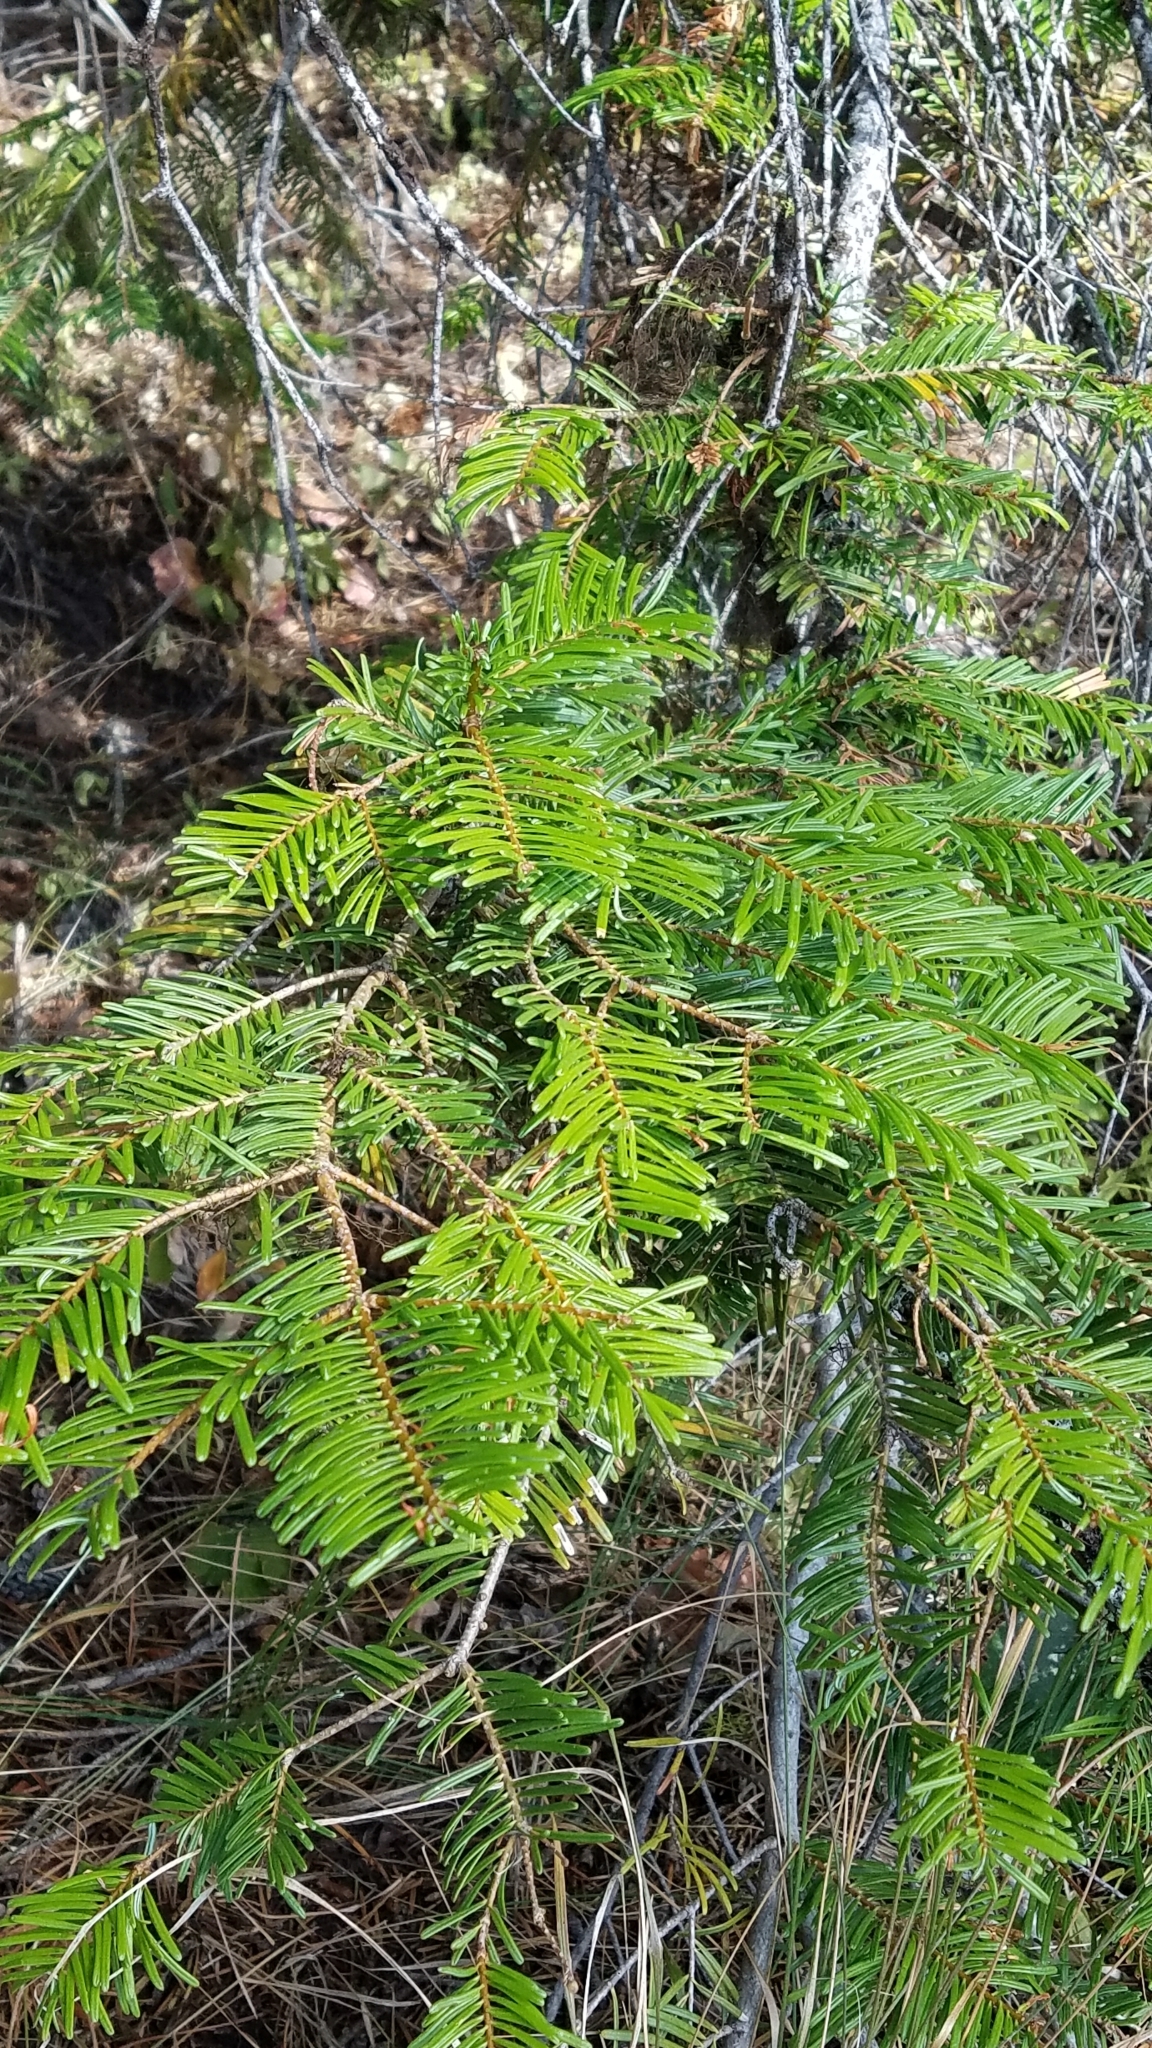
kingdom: Plantae
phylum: Tracheophyta
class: Pinopsida
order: Pinales
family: Pinaceae
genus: Abies
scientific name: Abies grandis
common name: Giant fir
